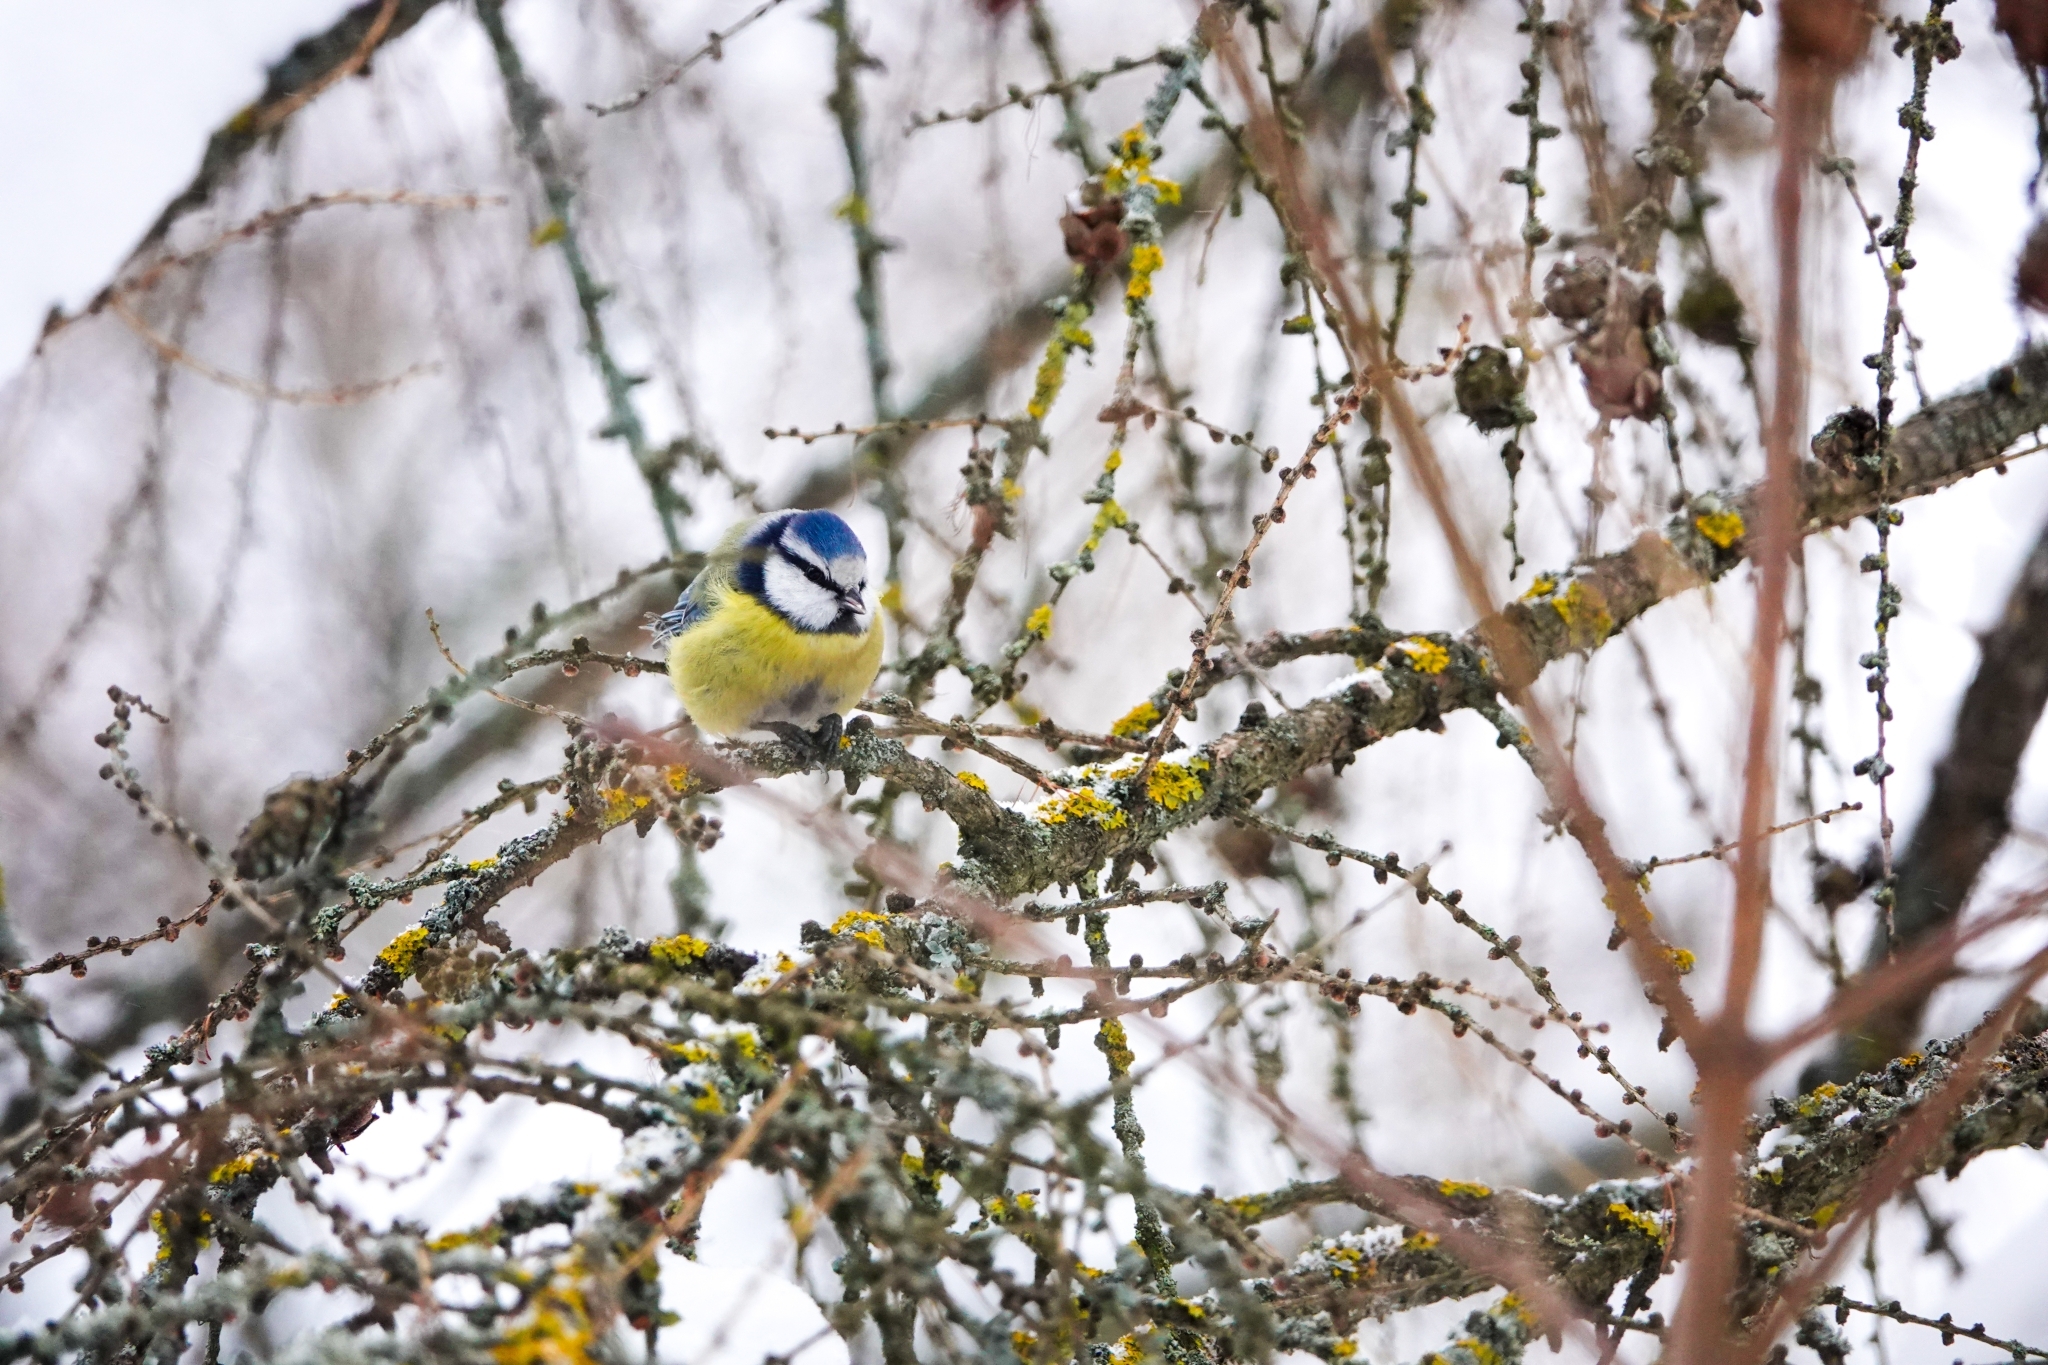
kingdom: Animalia
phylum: Chordata
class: Aves
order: Passeriformes
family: Paridae
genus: Cyanistes
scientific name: Cyanistes caeruleus
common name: Eurasian blue tit
